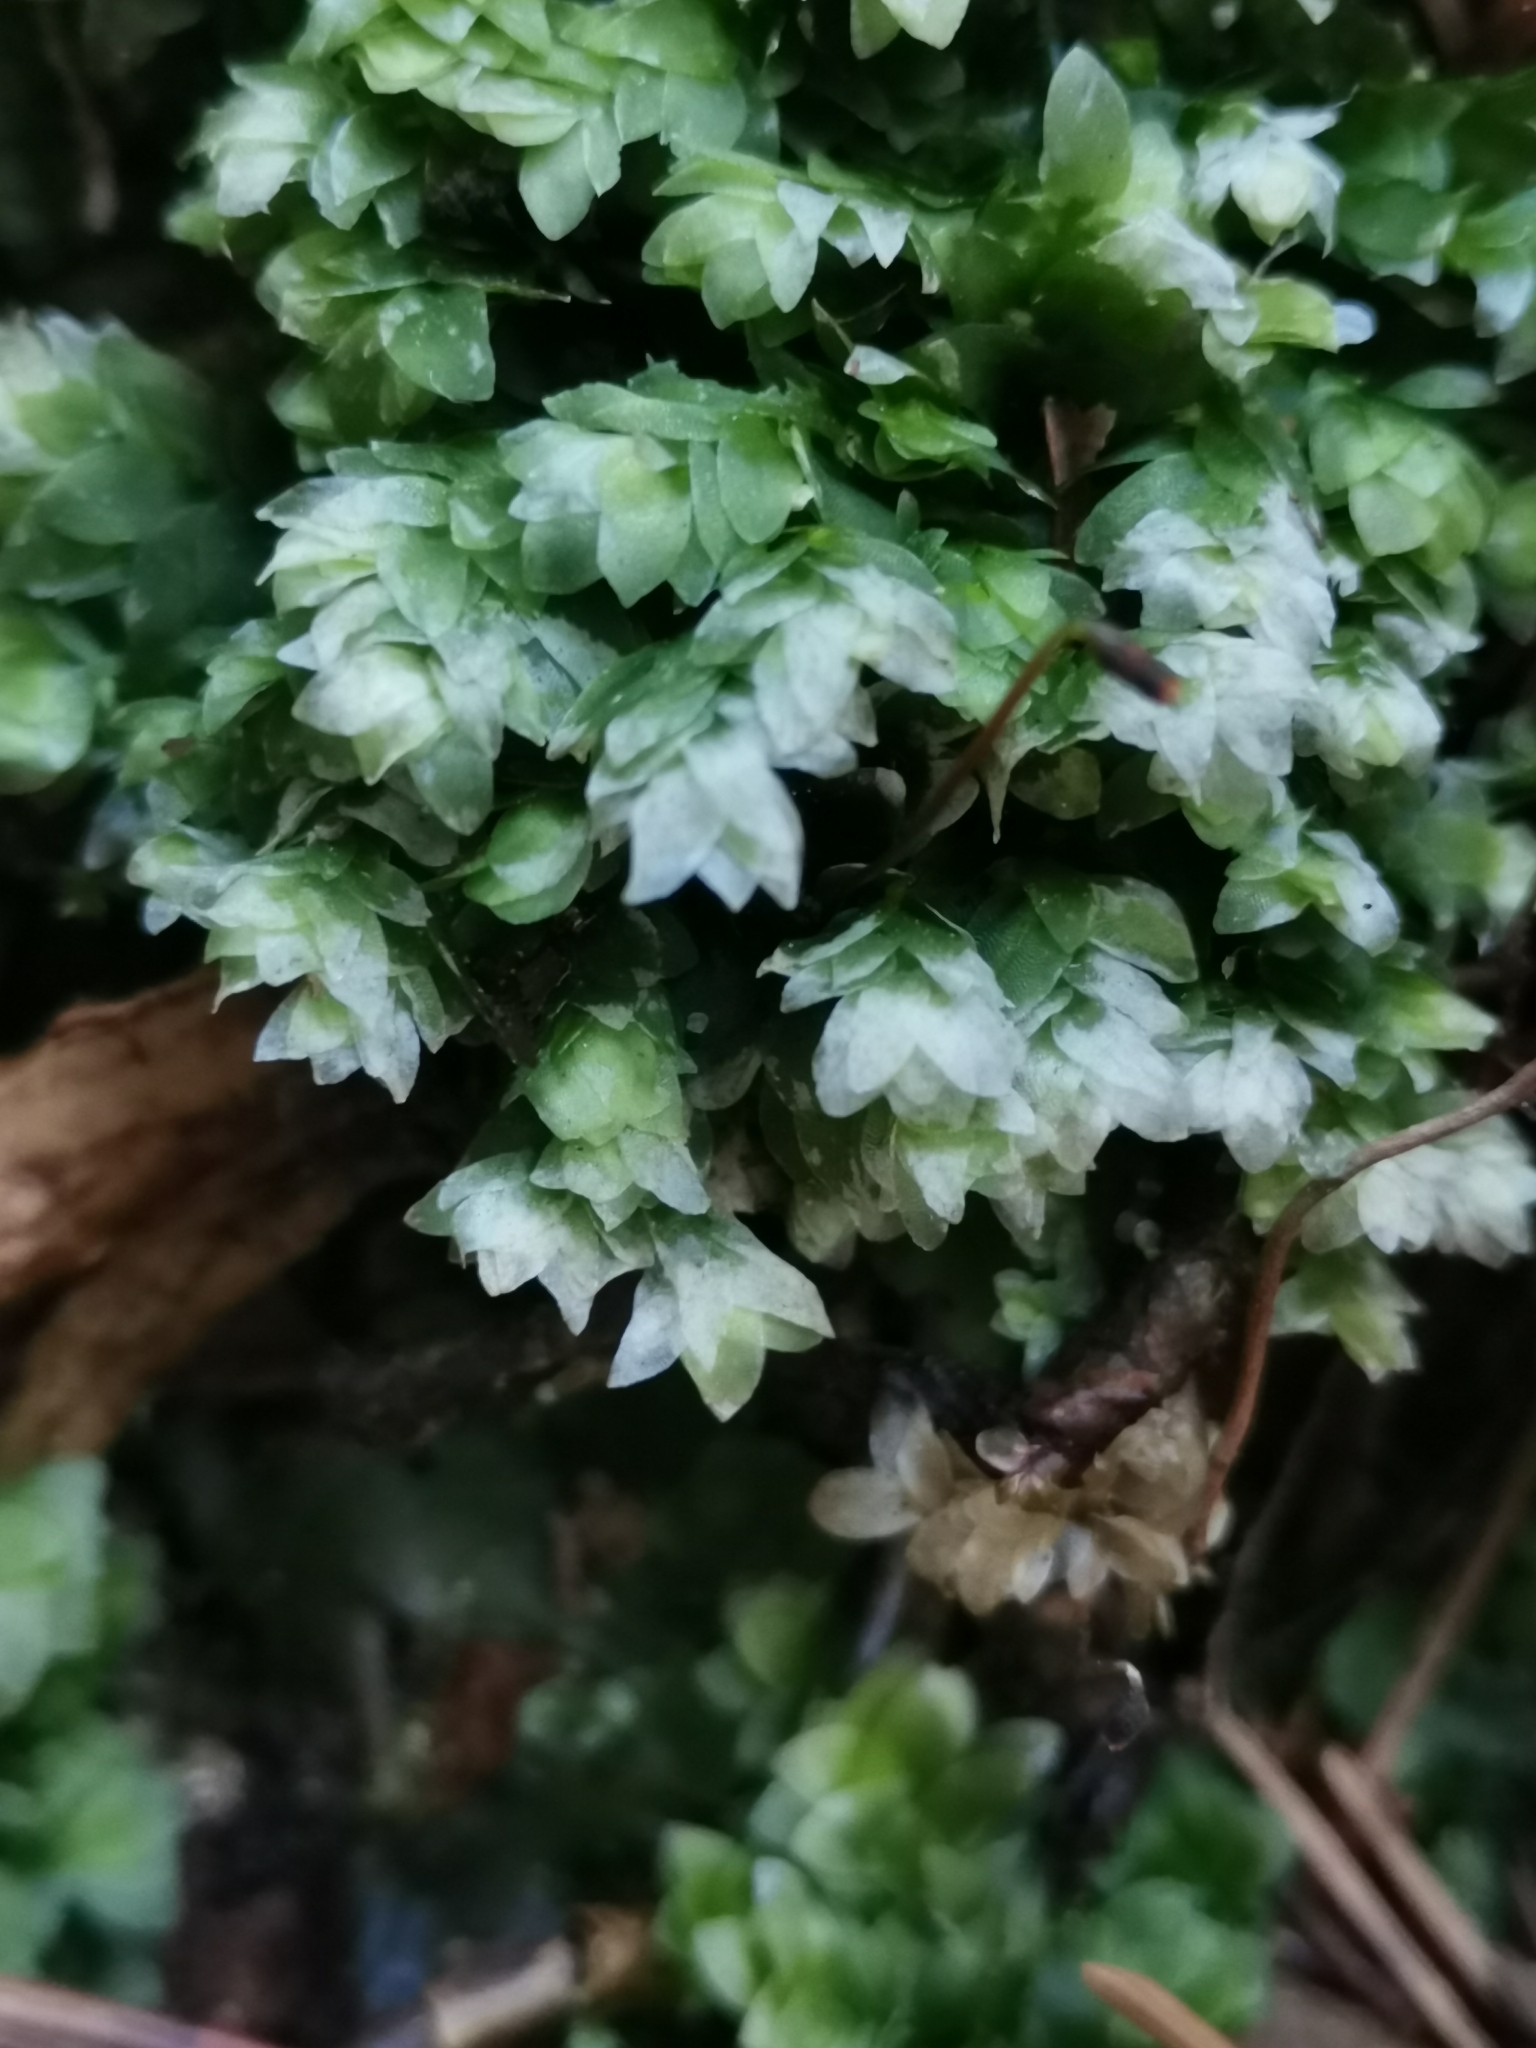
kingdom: Plantae
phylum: Bryophyta
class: Bryopsida
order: Hookeriales
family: Hookeriaceae
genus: Hookeria
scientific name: Hookeria lucens
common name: Shining hookeria
